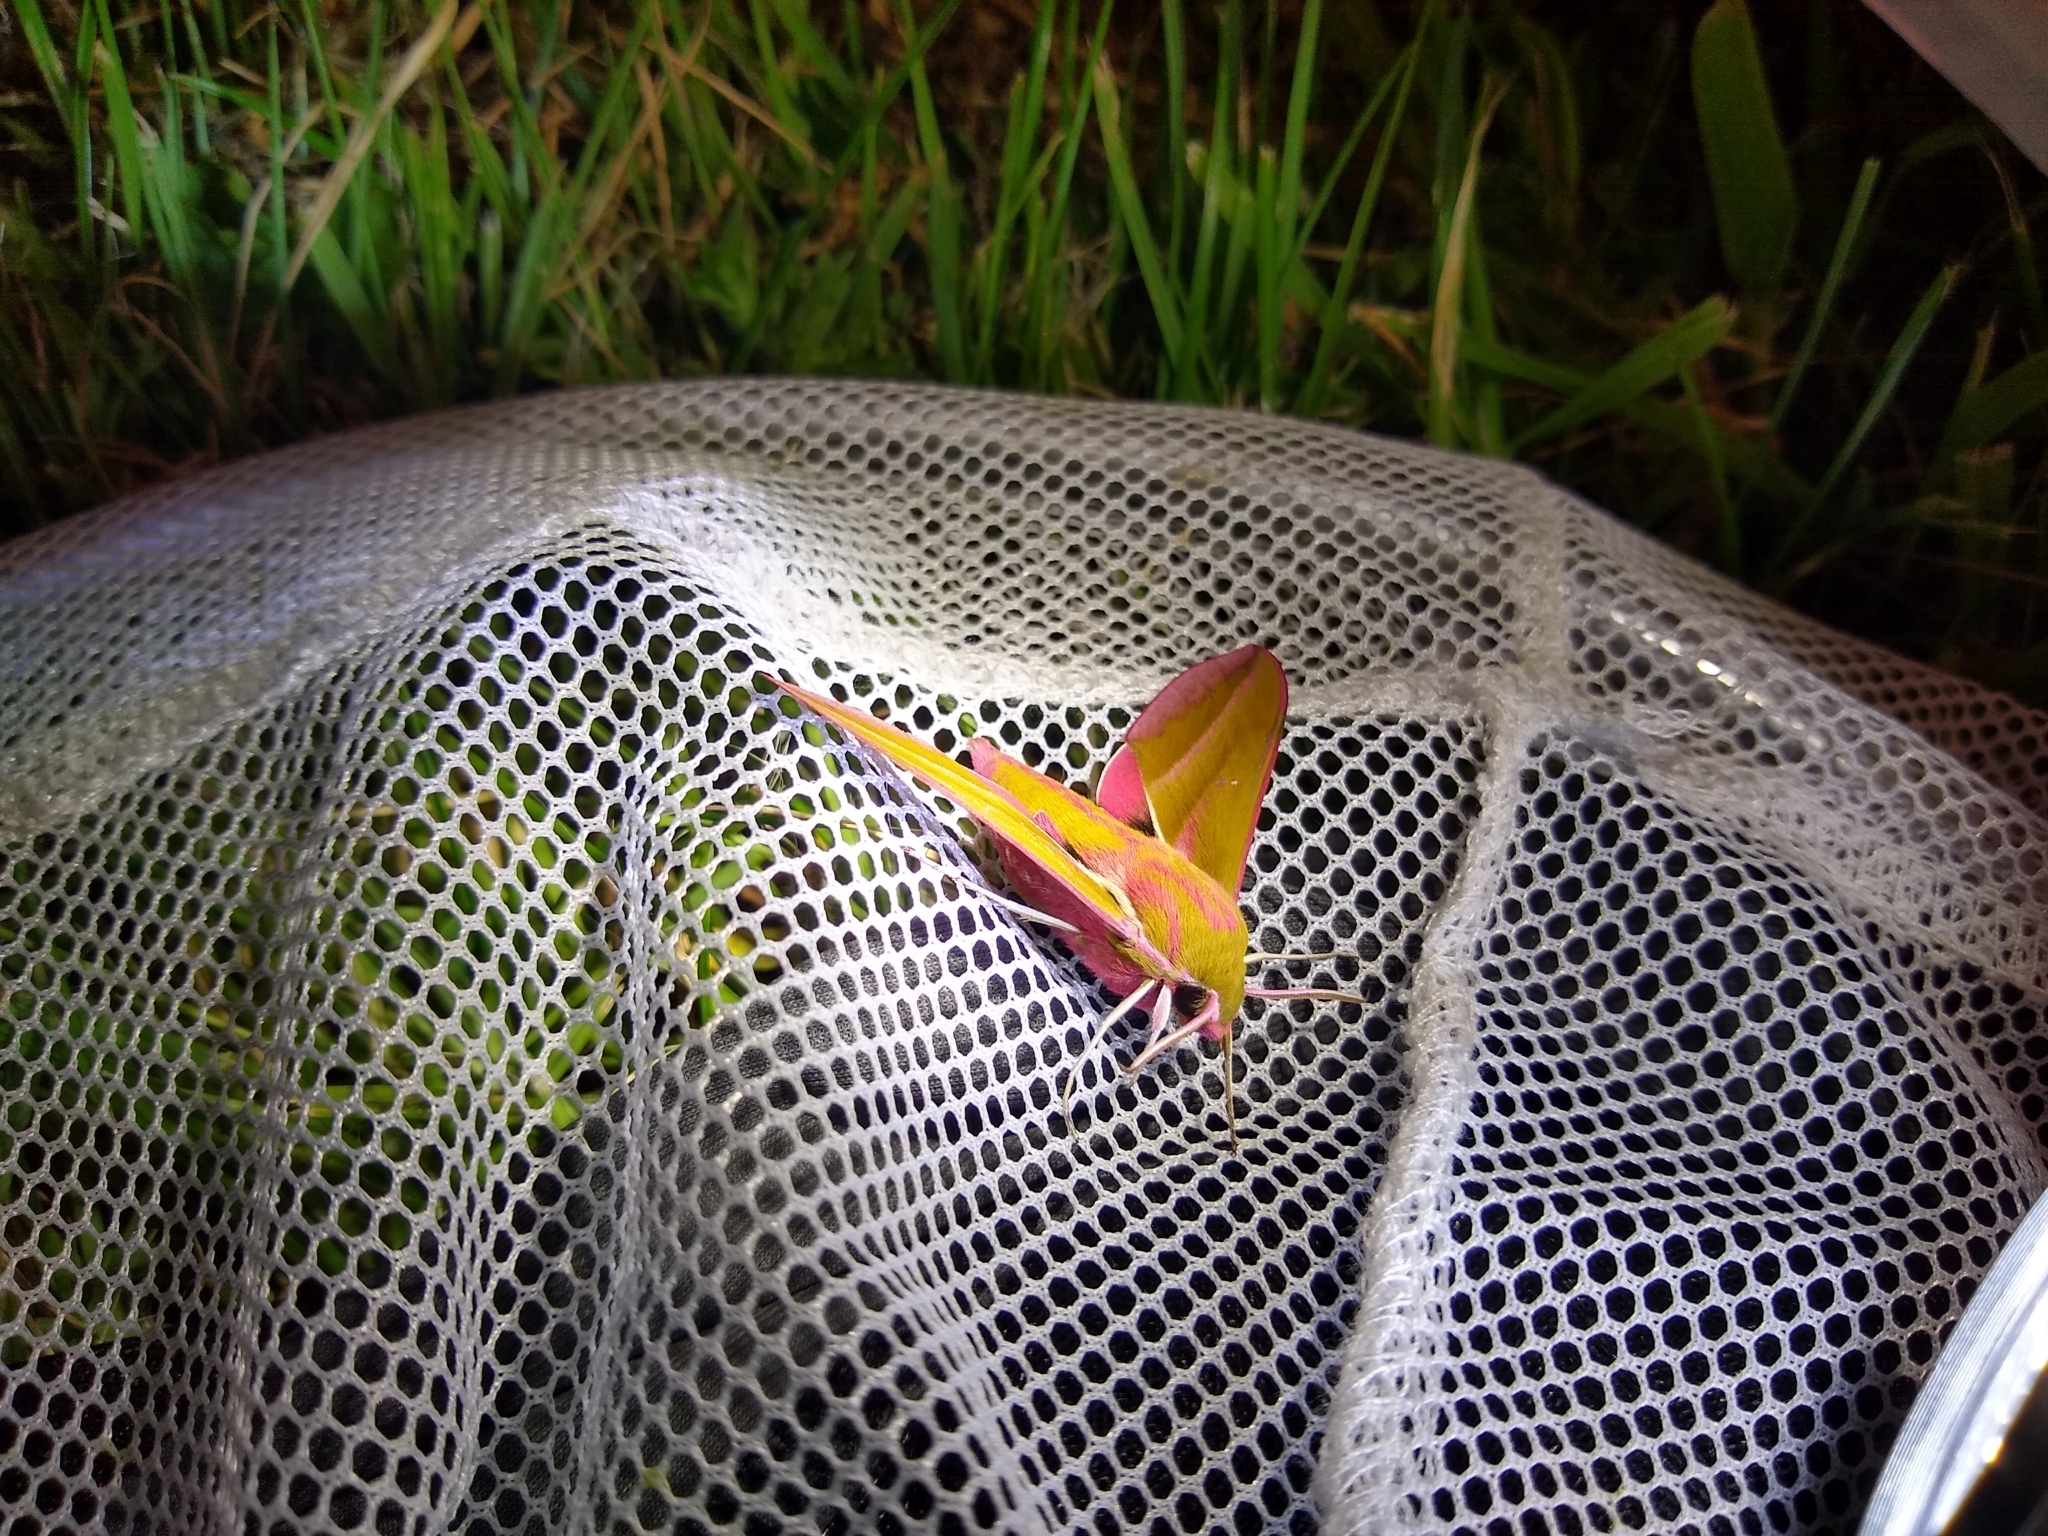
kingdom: Animalia
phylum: Arthropoda
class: Insecta
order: Lepidoptera
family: Sphingidae
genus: Deilephila
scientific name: Deilephila elpenor
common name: Elephant hawk-moth
